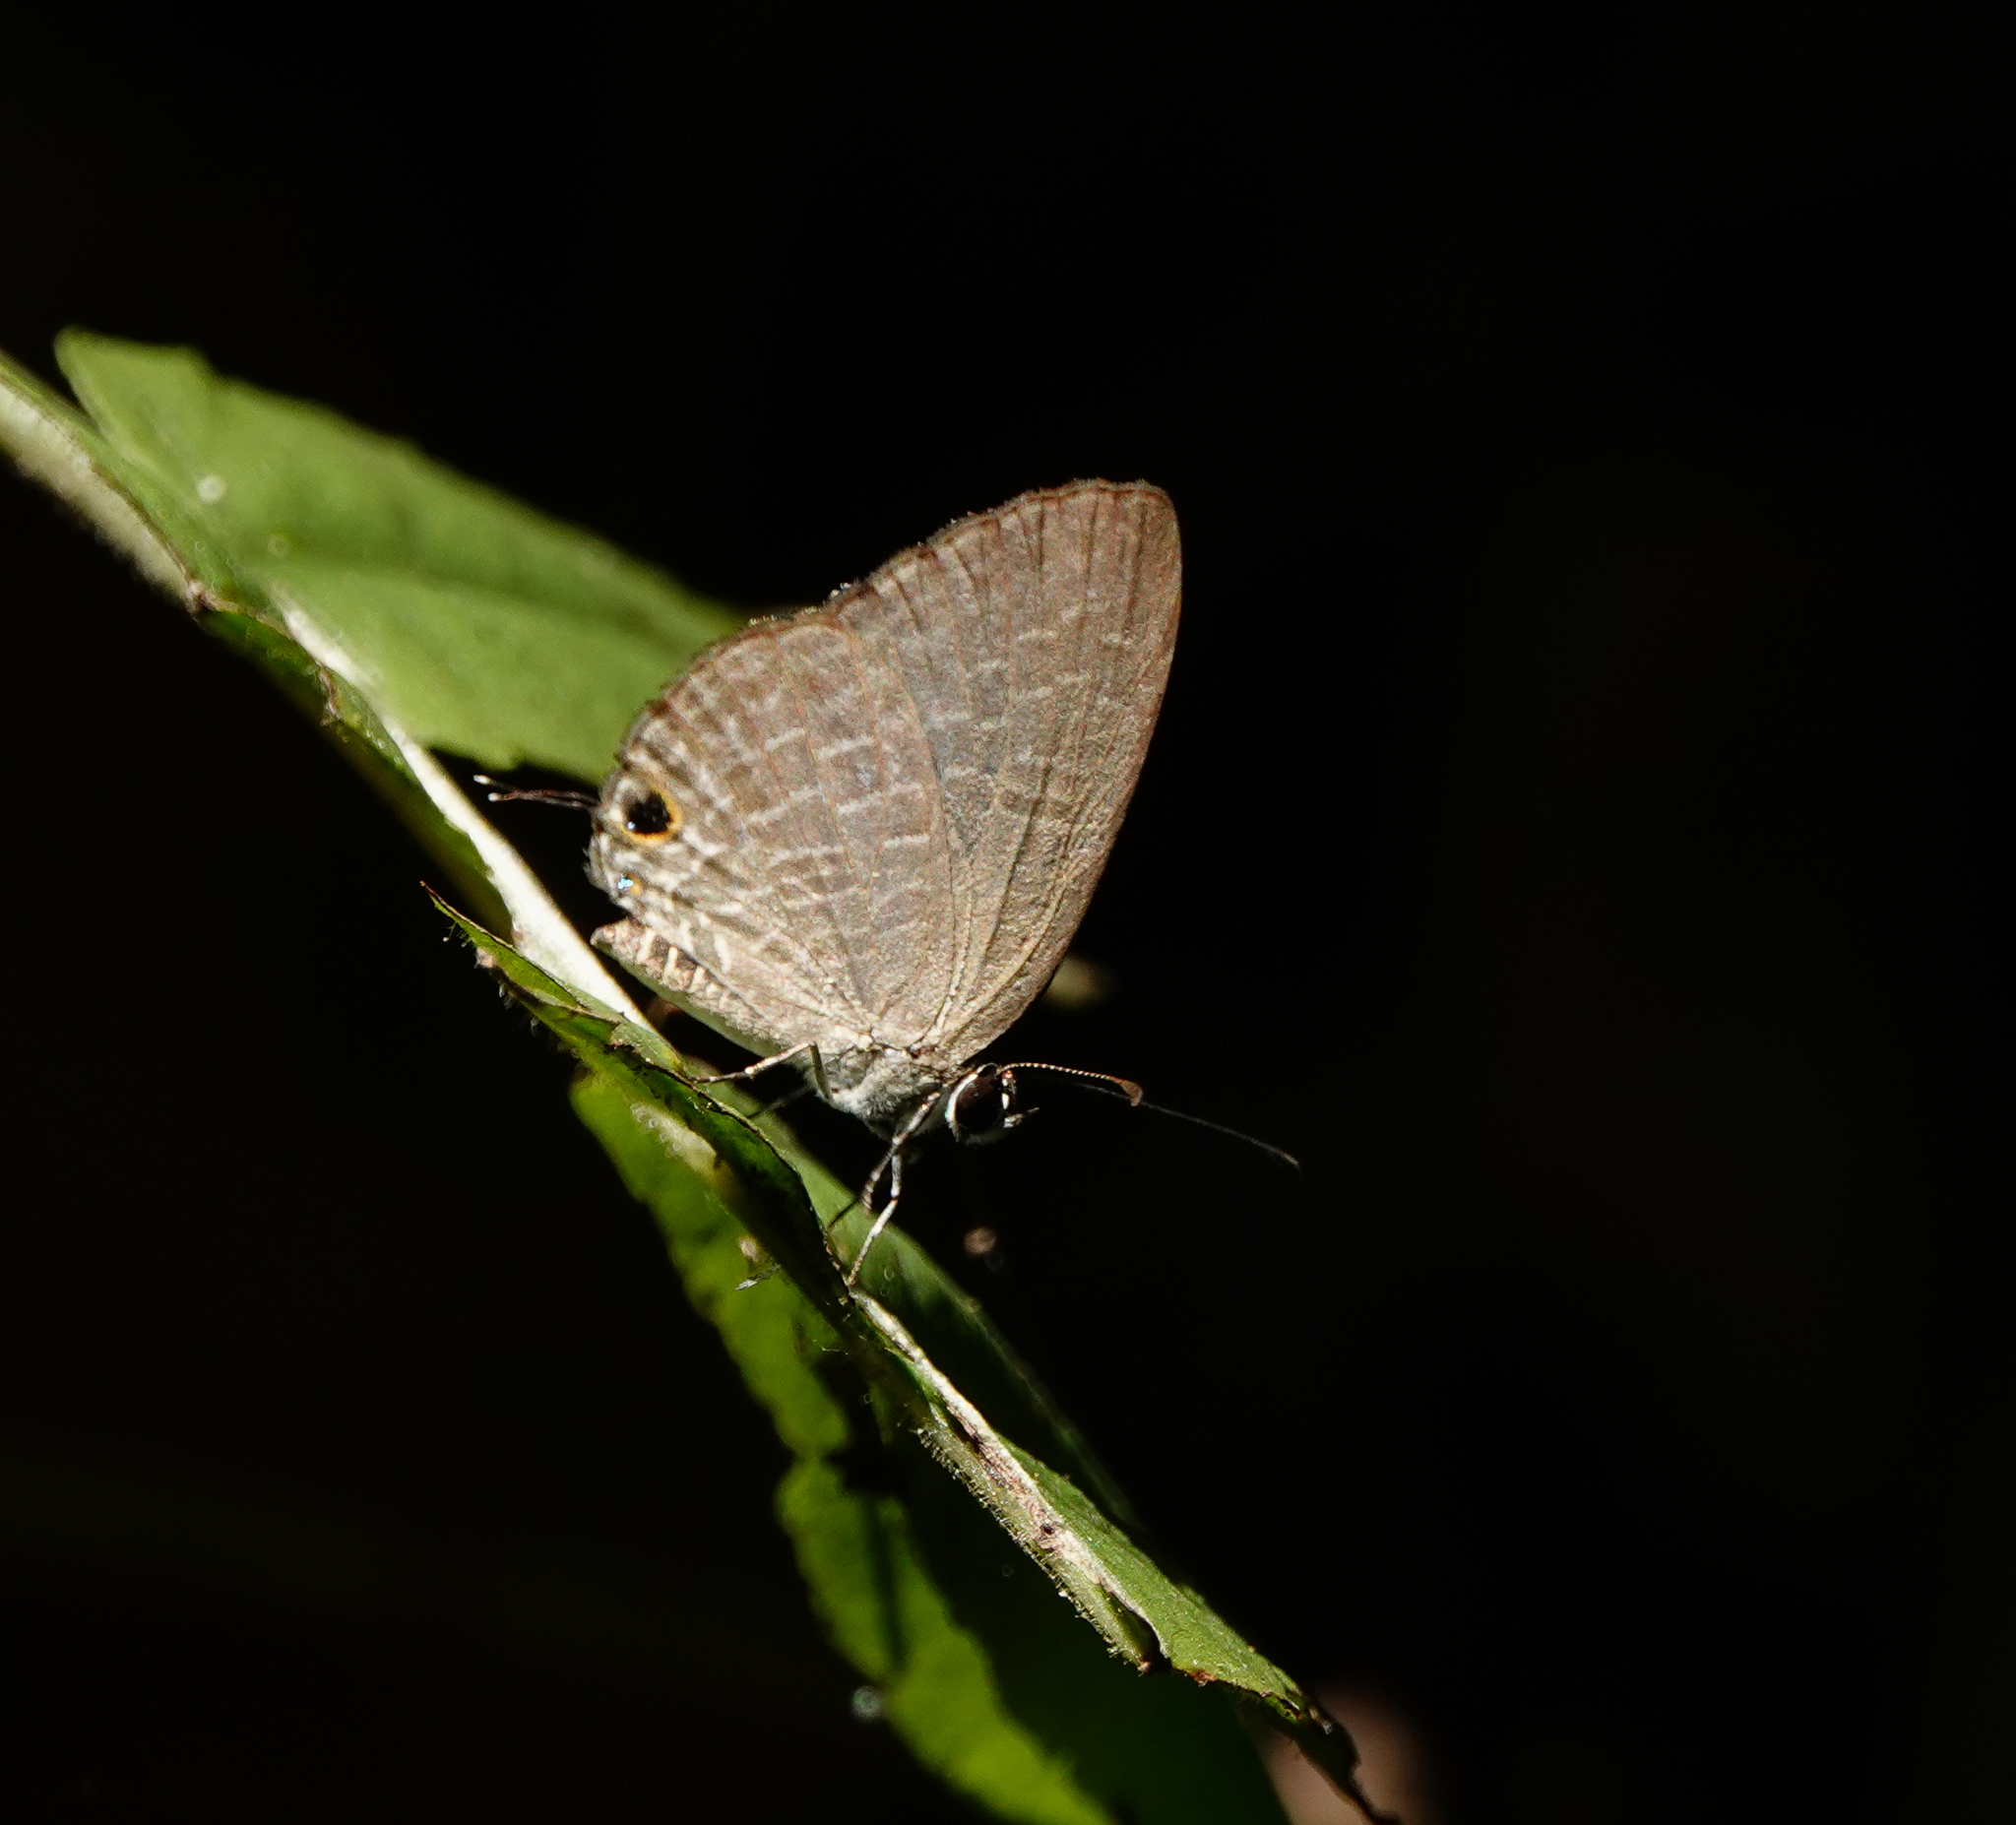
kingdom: Animalia
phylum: Arthropoda
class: Insecta
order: Lepidoptera
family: Lycaenidae
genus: Jamides
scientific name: Jamides bochus
